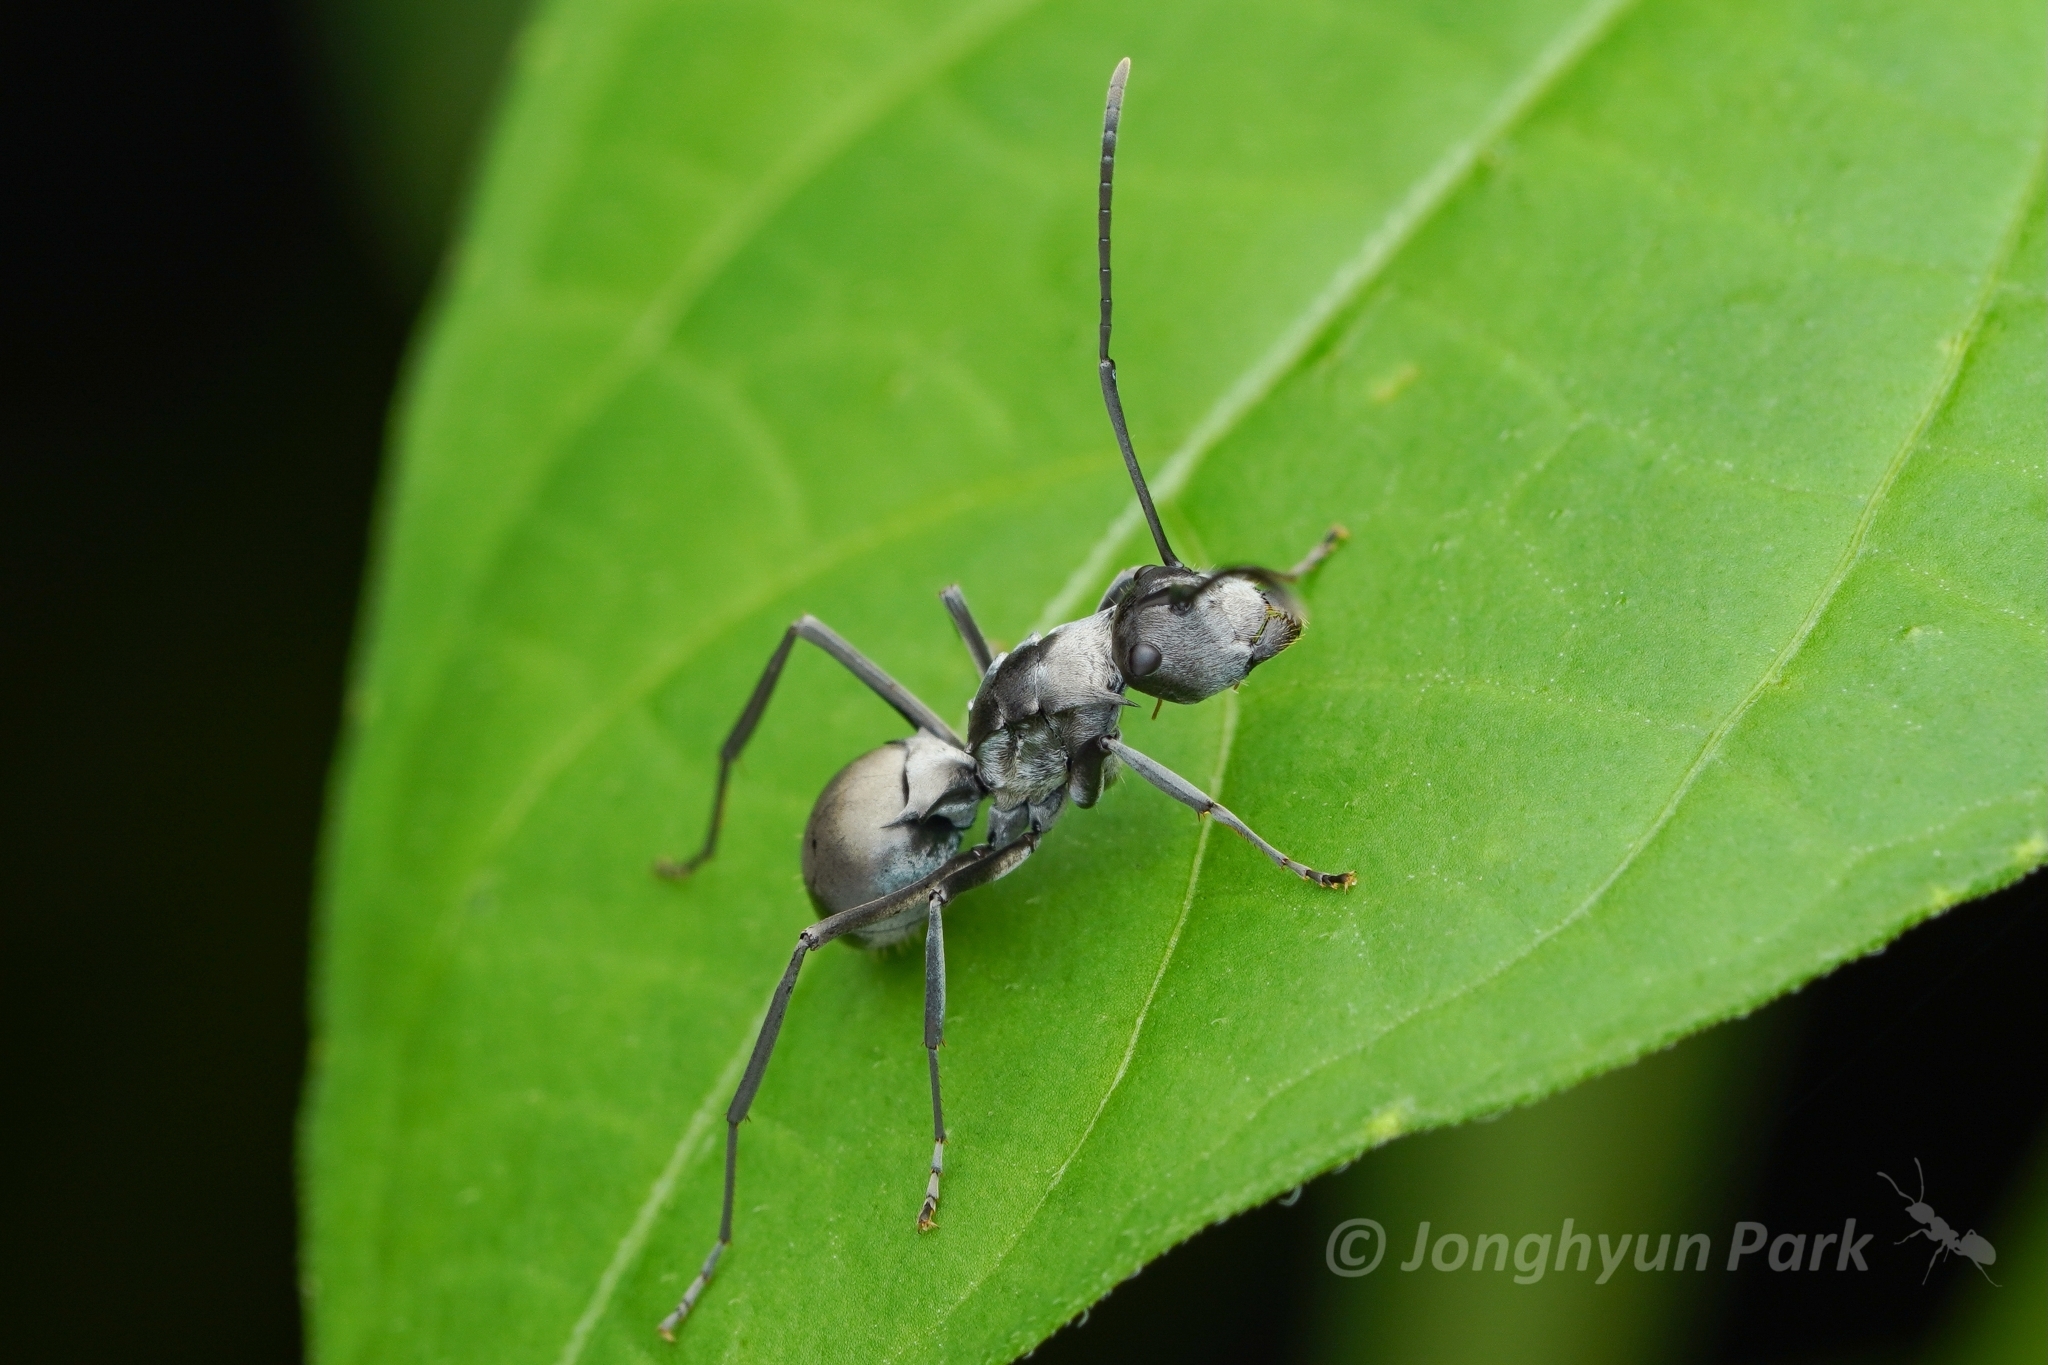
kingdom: Animalia
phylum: Arthropoda
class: Insecta
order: Hymenoptera
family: Formicidae
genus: Polyrhachis
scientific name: Polyrhachis latona
